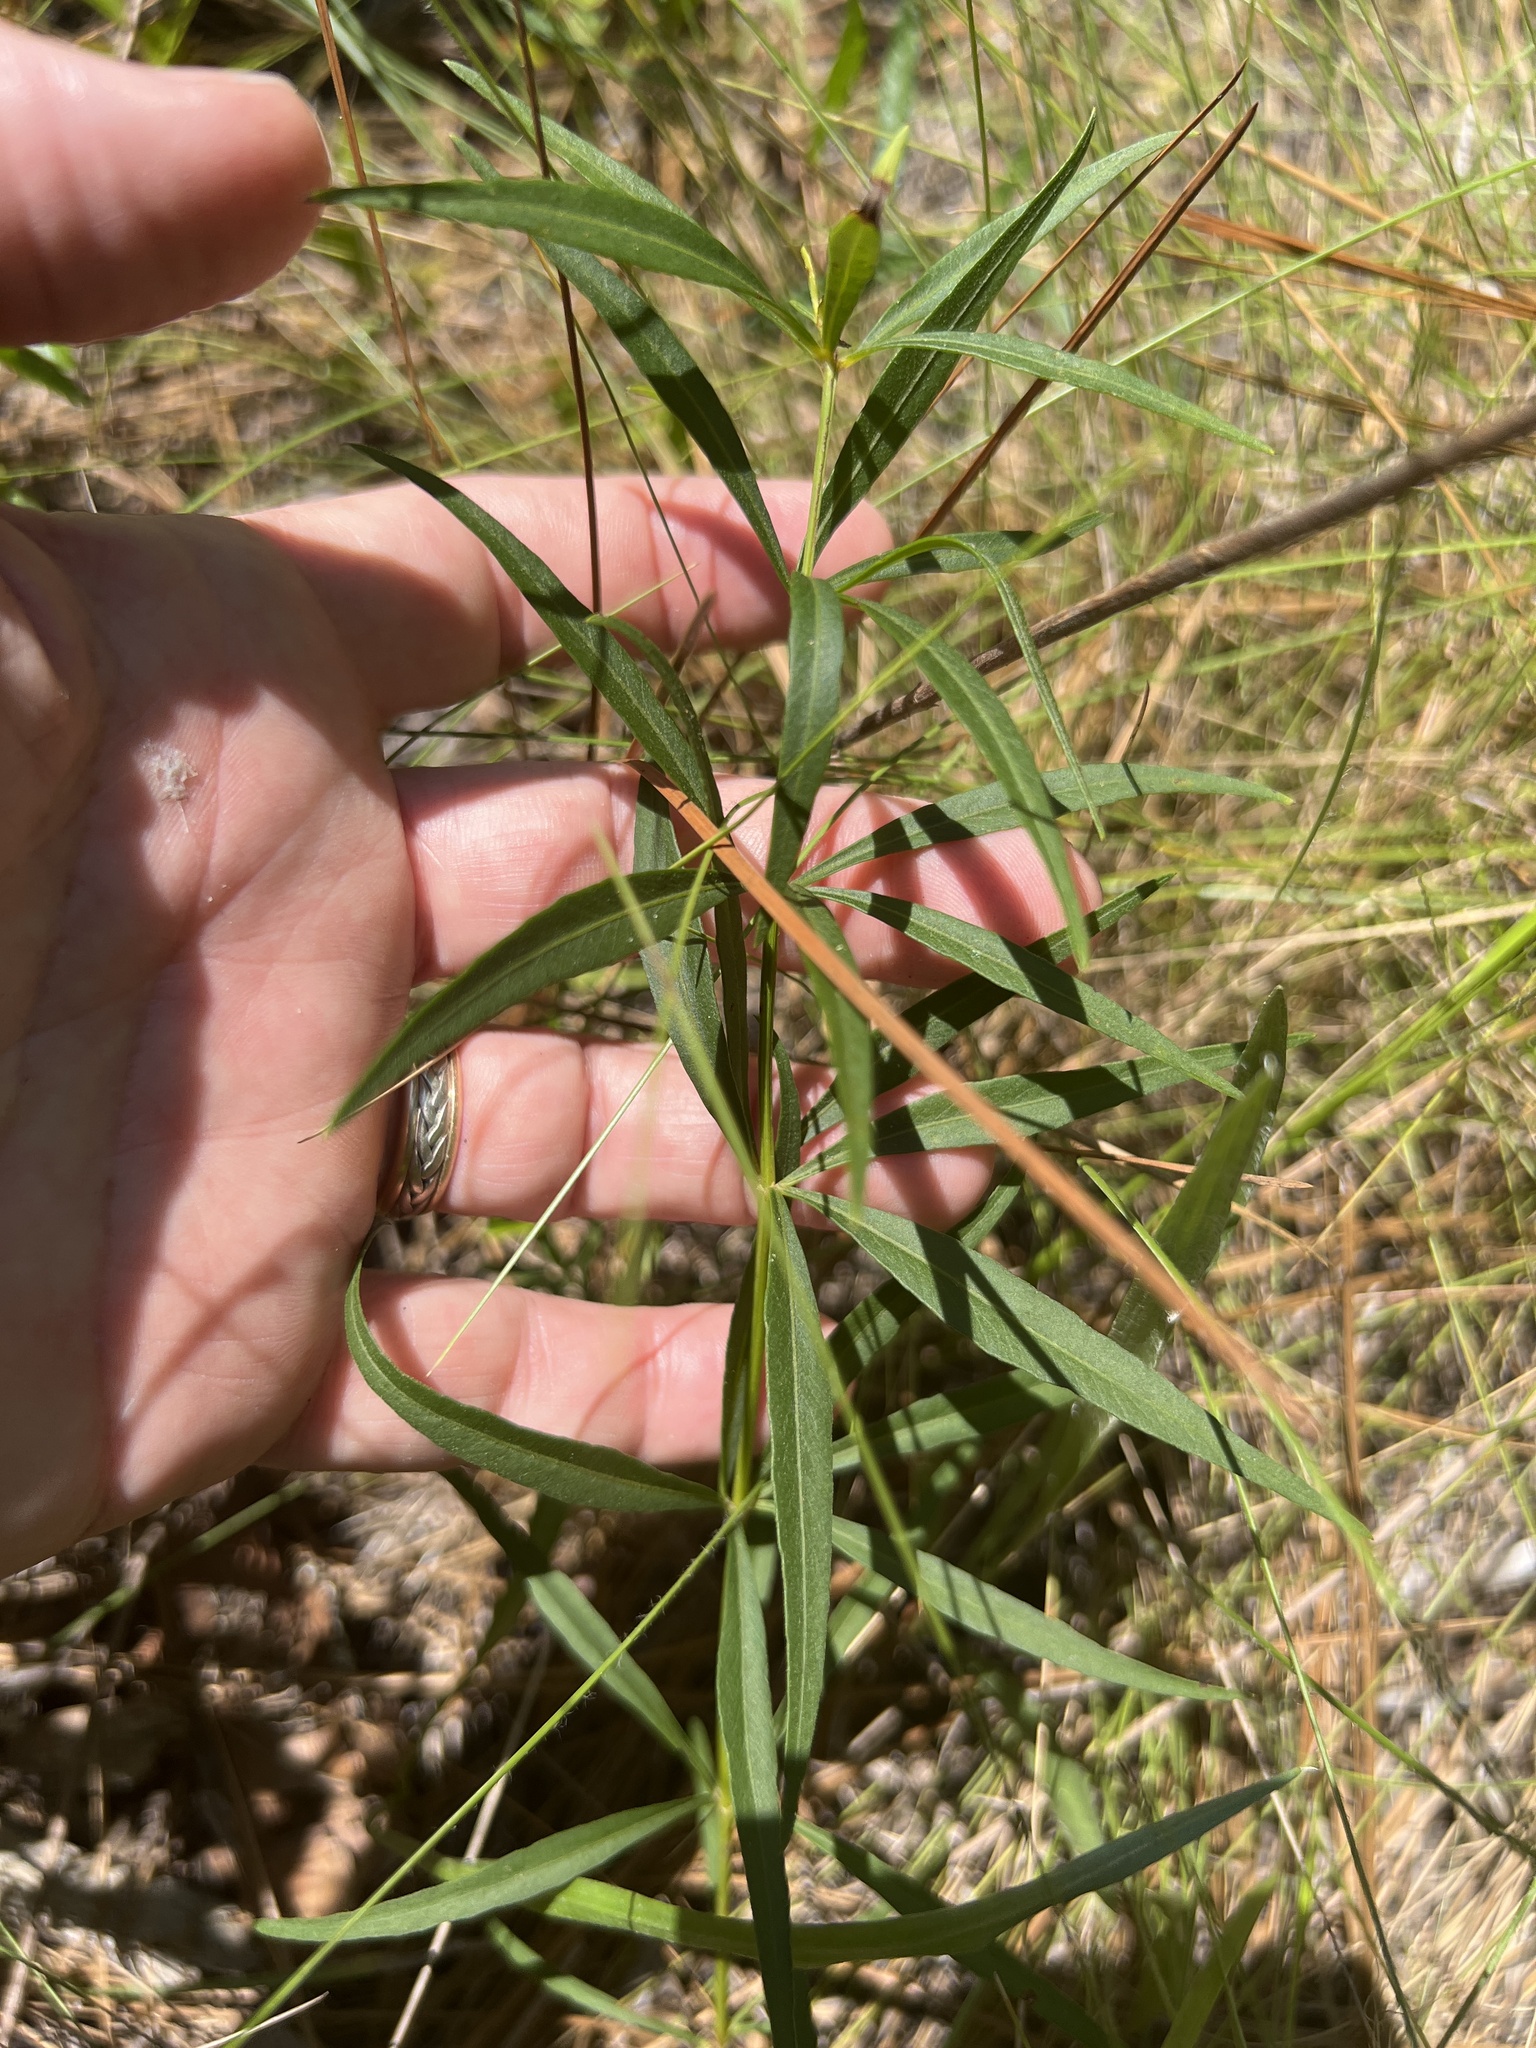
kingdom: Plantae
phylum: Tracheophyta
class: Magnoliopsida
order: Asterales
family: Asteraceae
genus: Coreopsis
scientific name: Coreopsis major
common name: Forest tickseed
